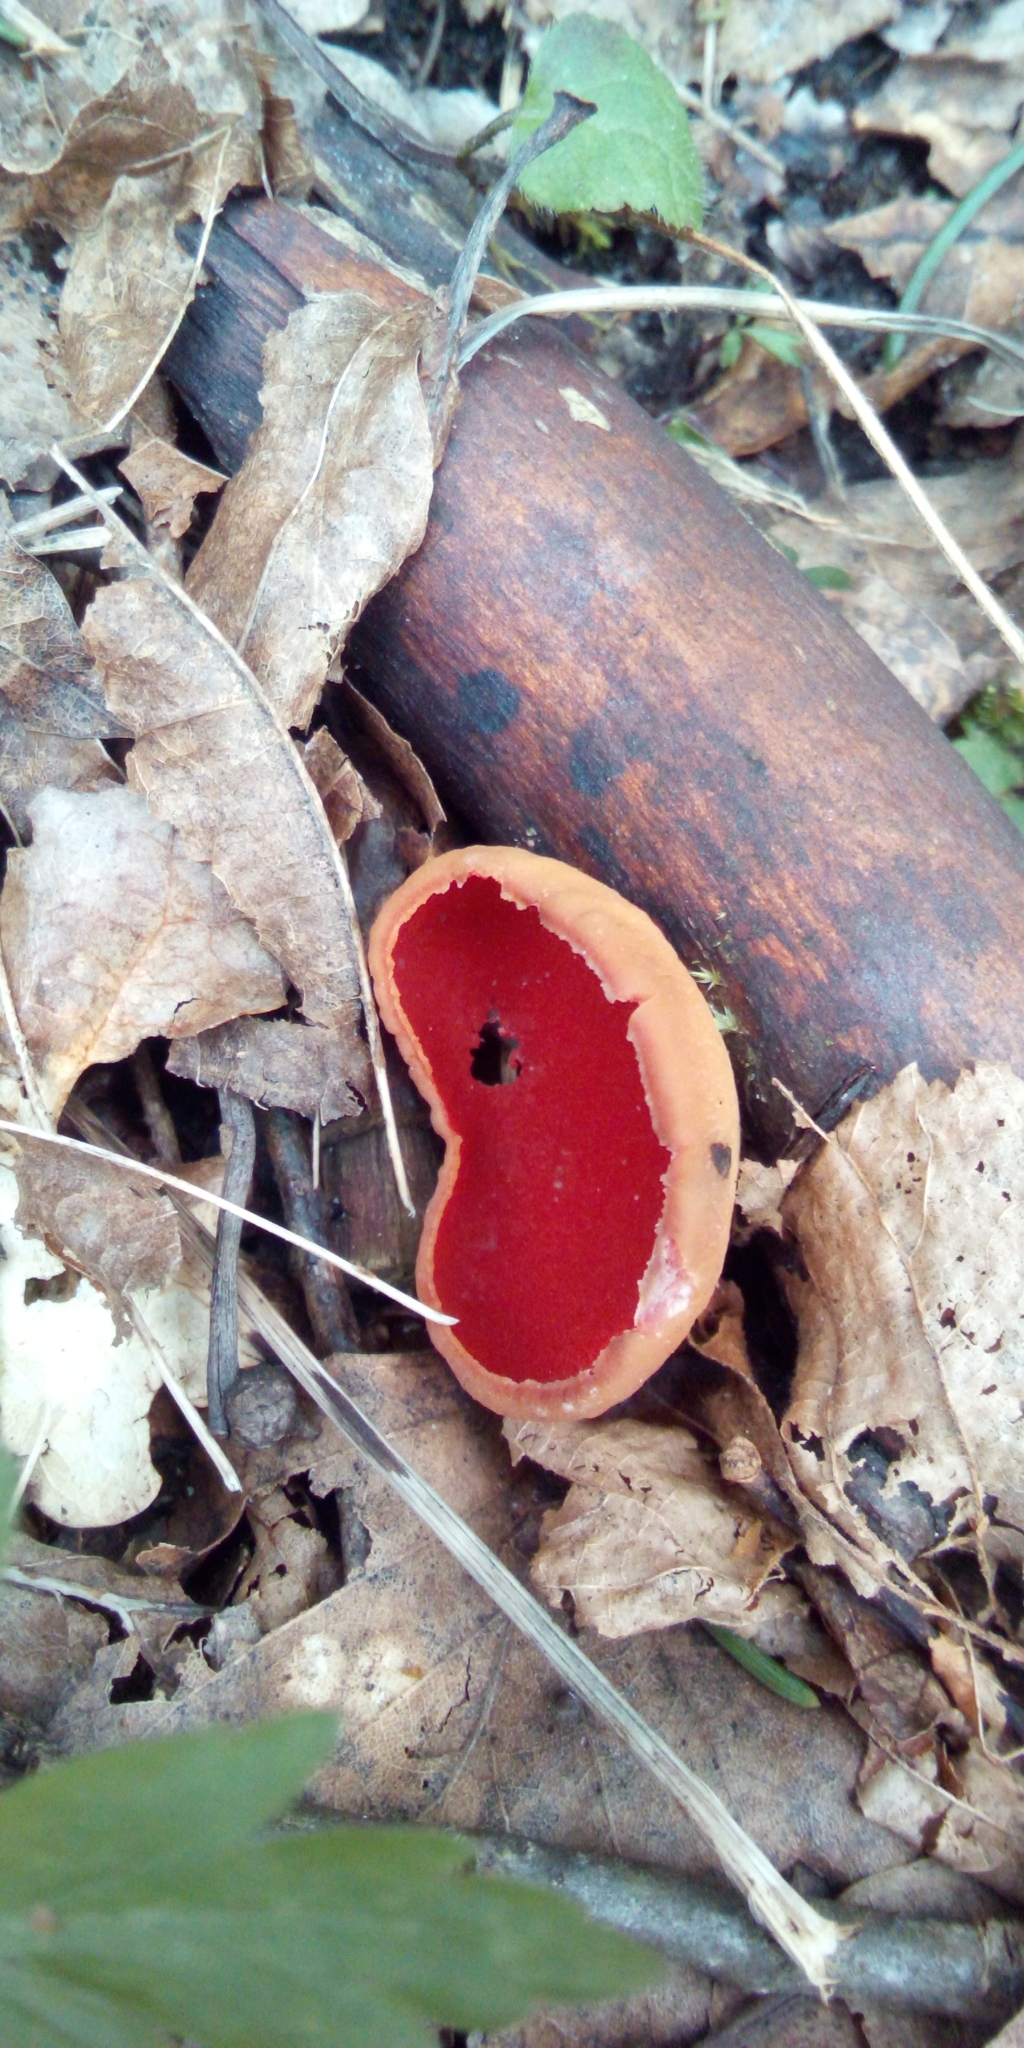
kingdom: Fungi
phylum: Ascomycota
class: Pezizomycetes
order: Pezizales
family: Sarcoscyphaceae
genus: Sarcoscypha
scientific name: Sarcoscypha
